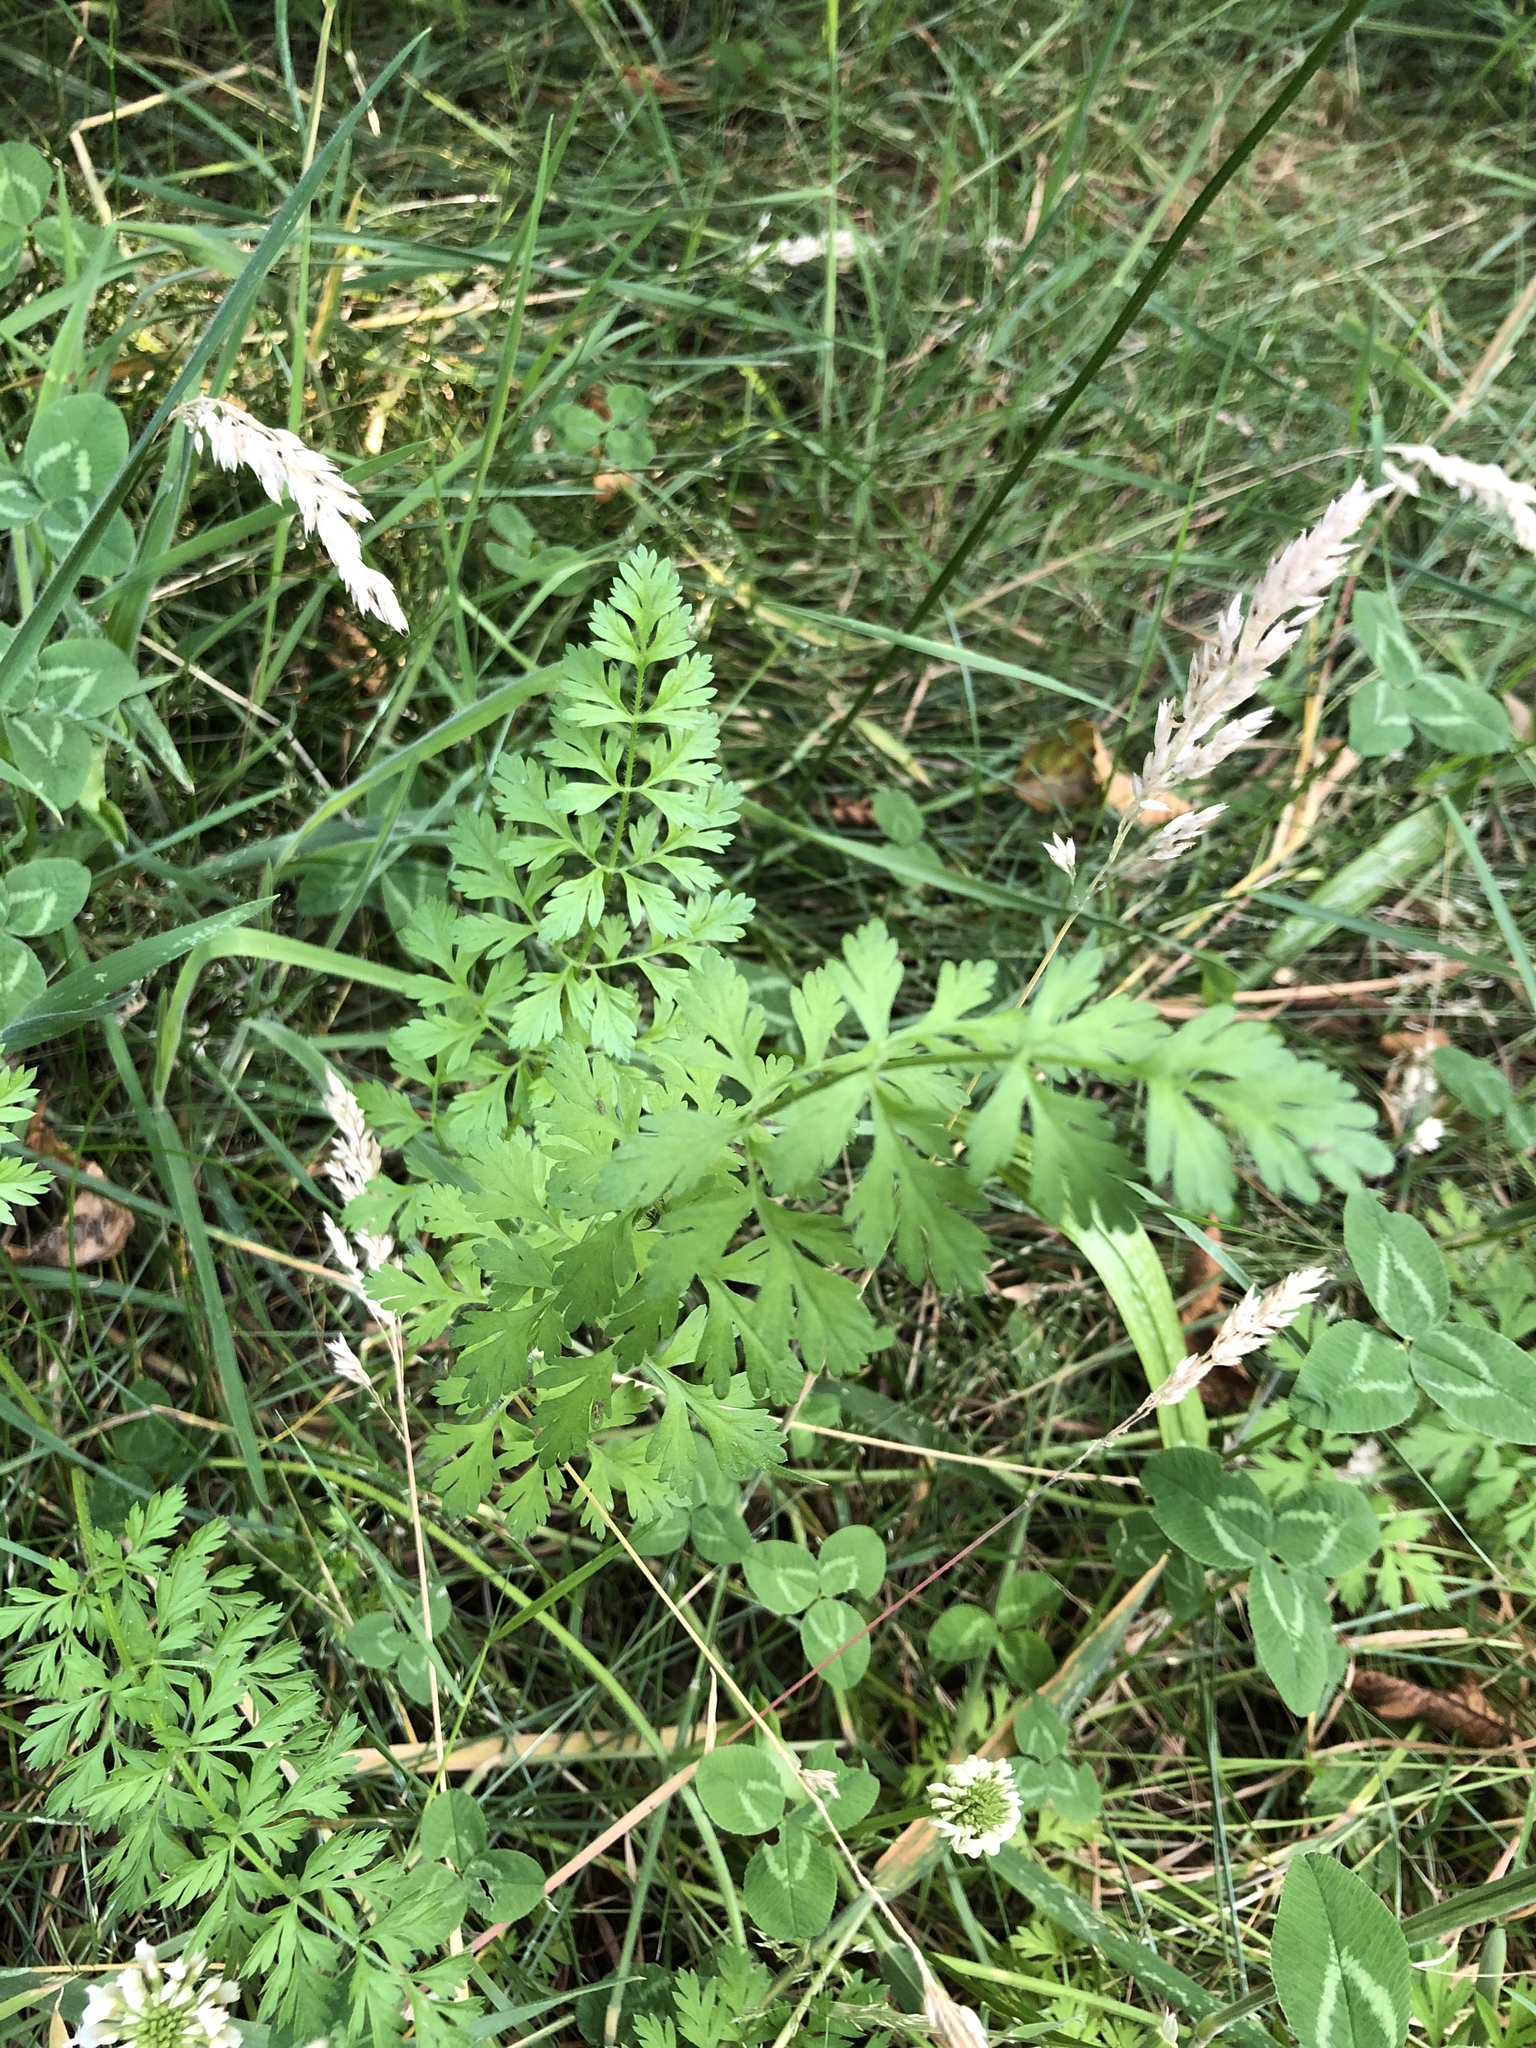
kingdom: Plantae
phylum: Tracheophyta
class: Magnoliopsida
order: Apiales
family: Apiaceae
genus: Daucus
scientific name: Daucus carota
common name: Wild carrot
